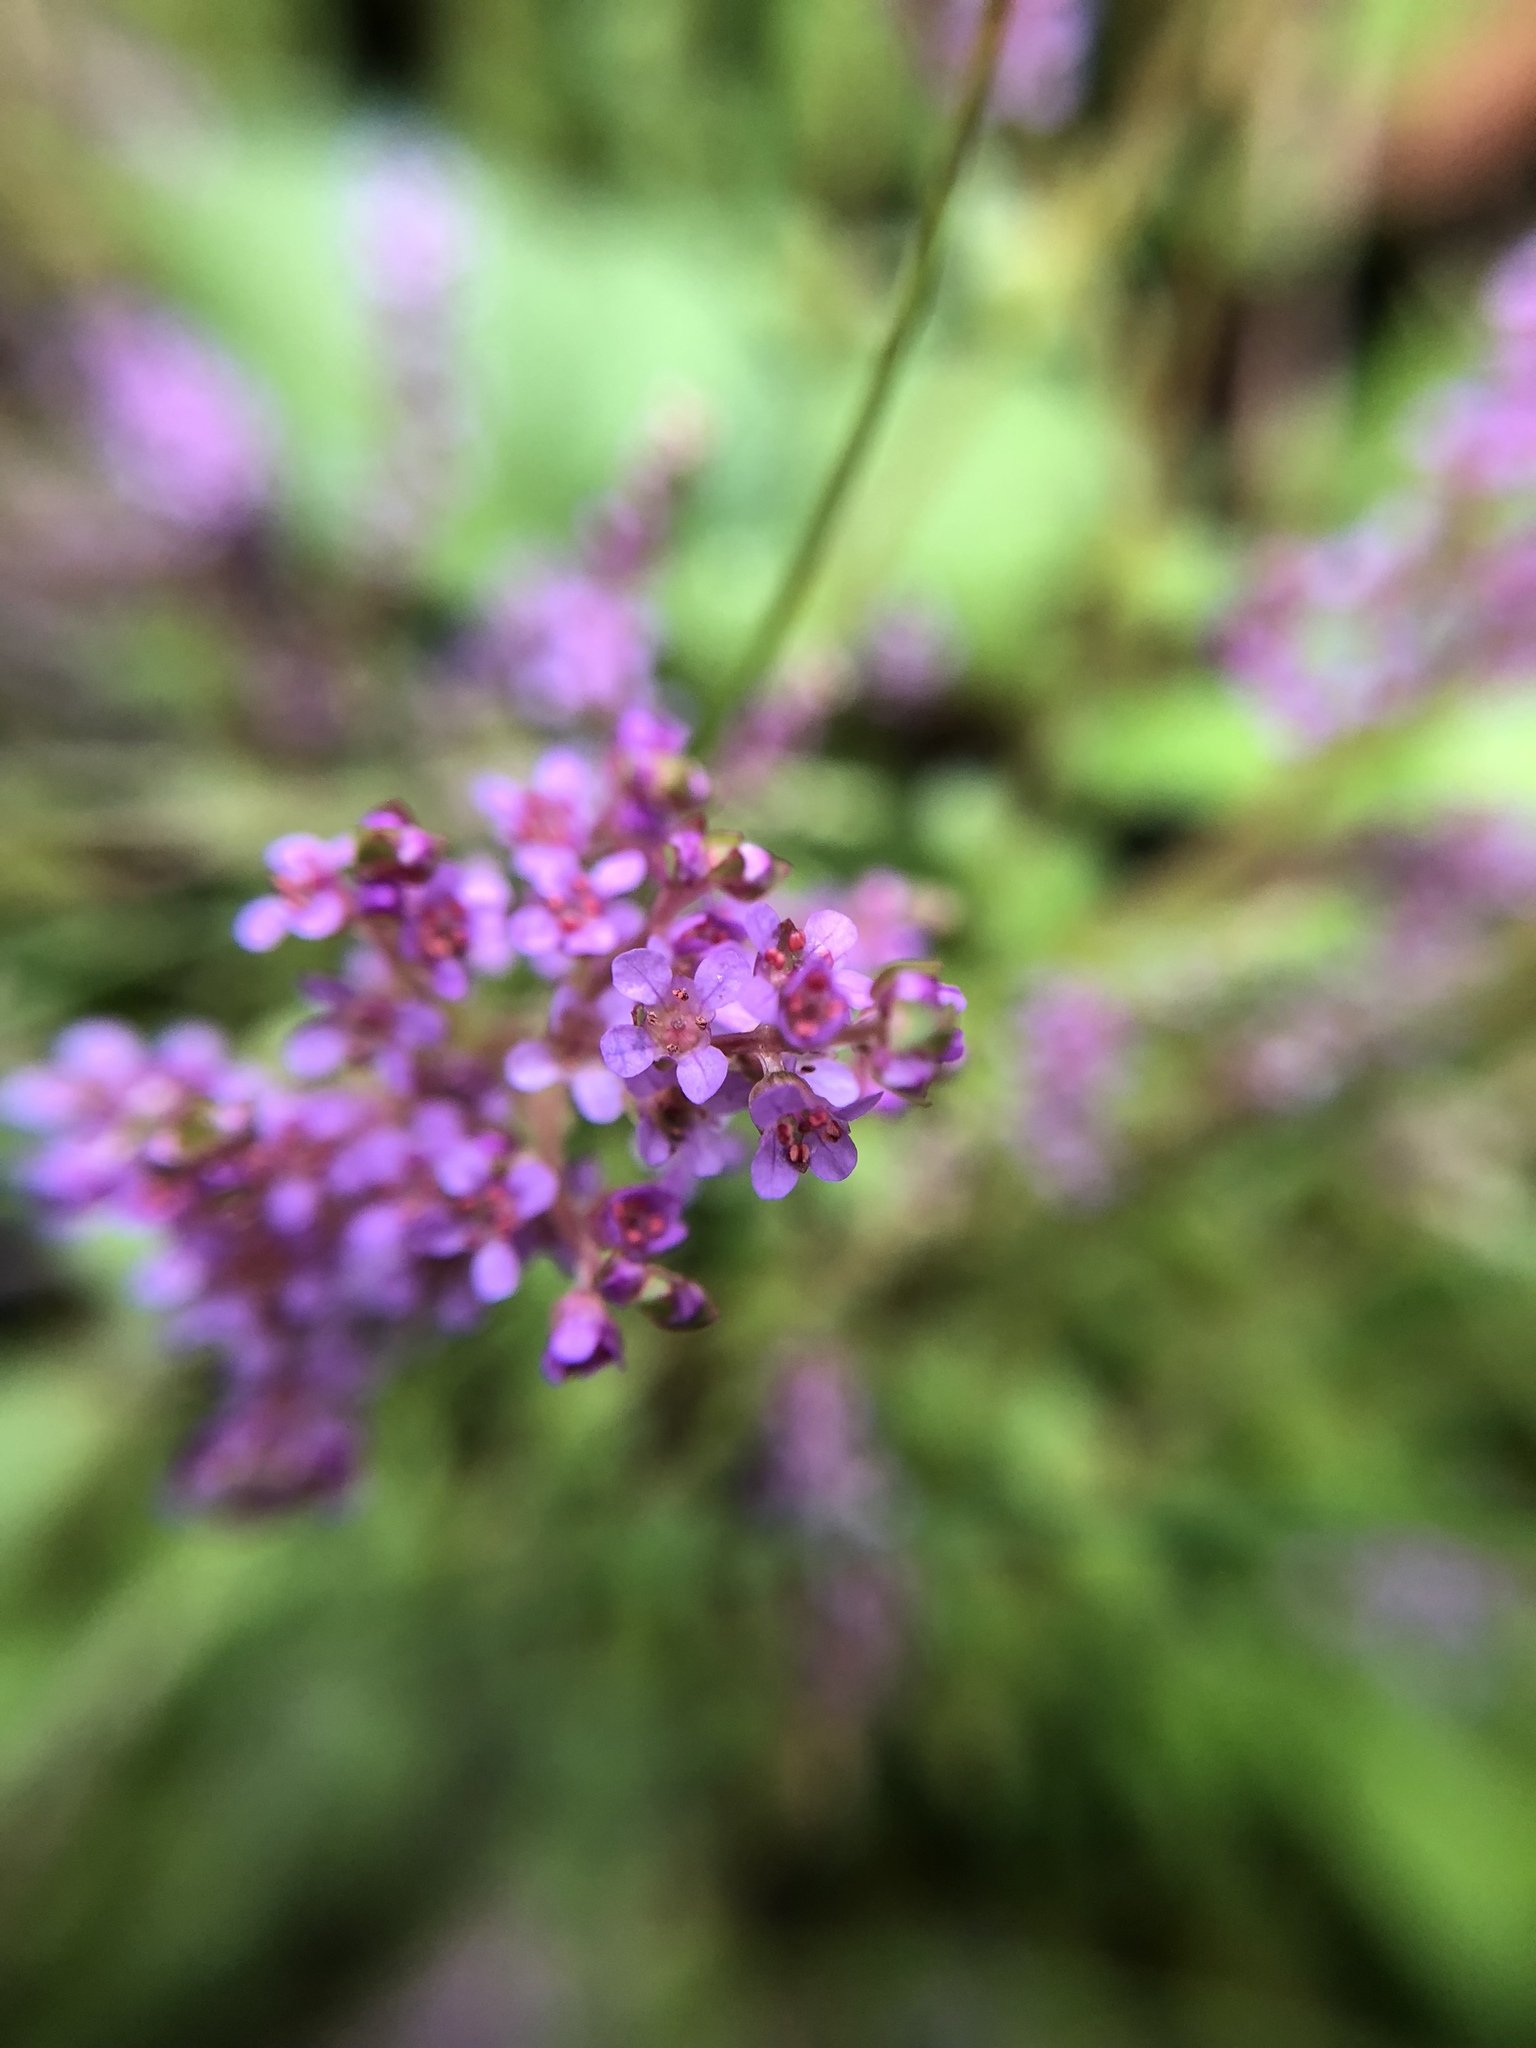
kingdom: Plantae
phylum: Tracheophyta
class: Magnoliopsida
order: Myrtales
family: Lythraceae
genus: Rotala
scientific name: Rotala rotundifolia
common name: Roundleaf toothcup
